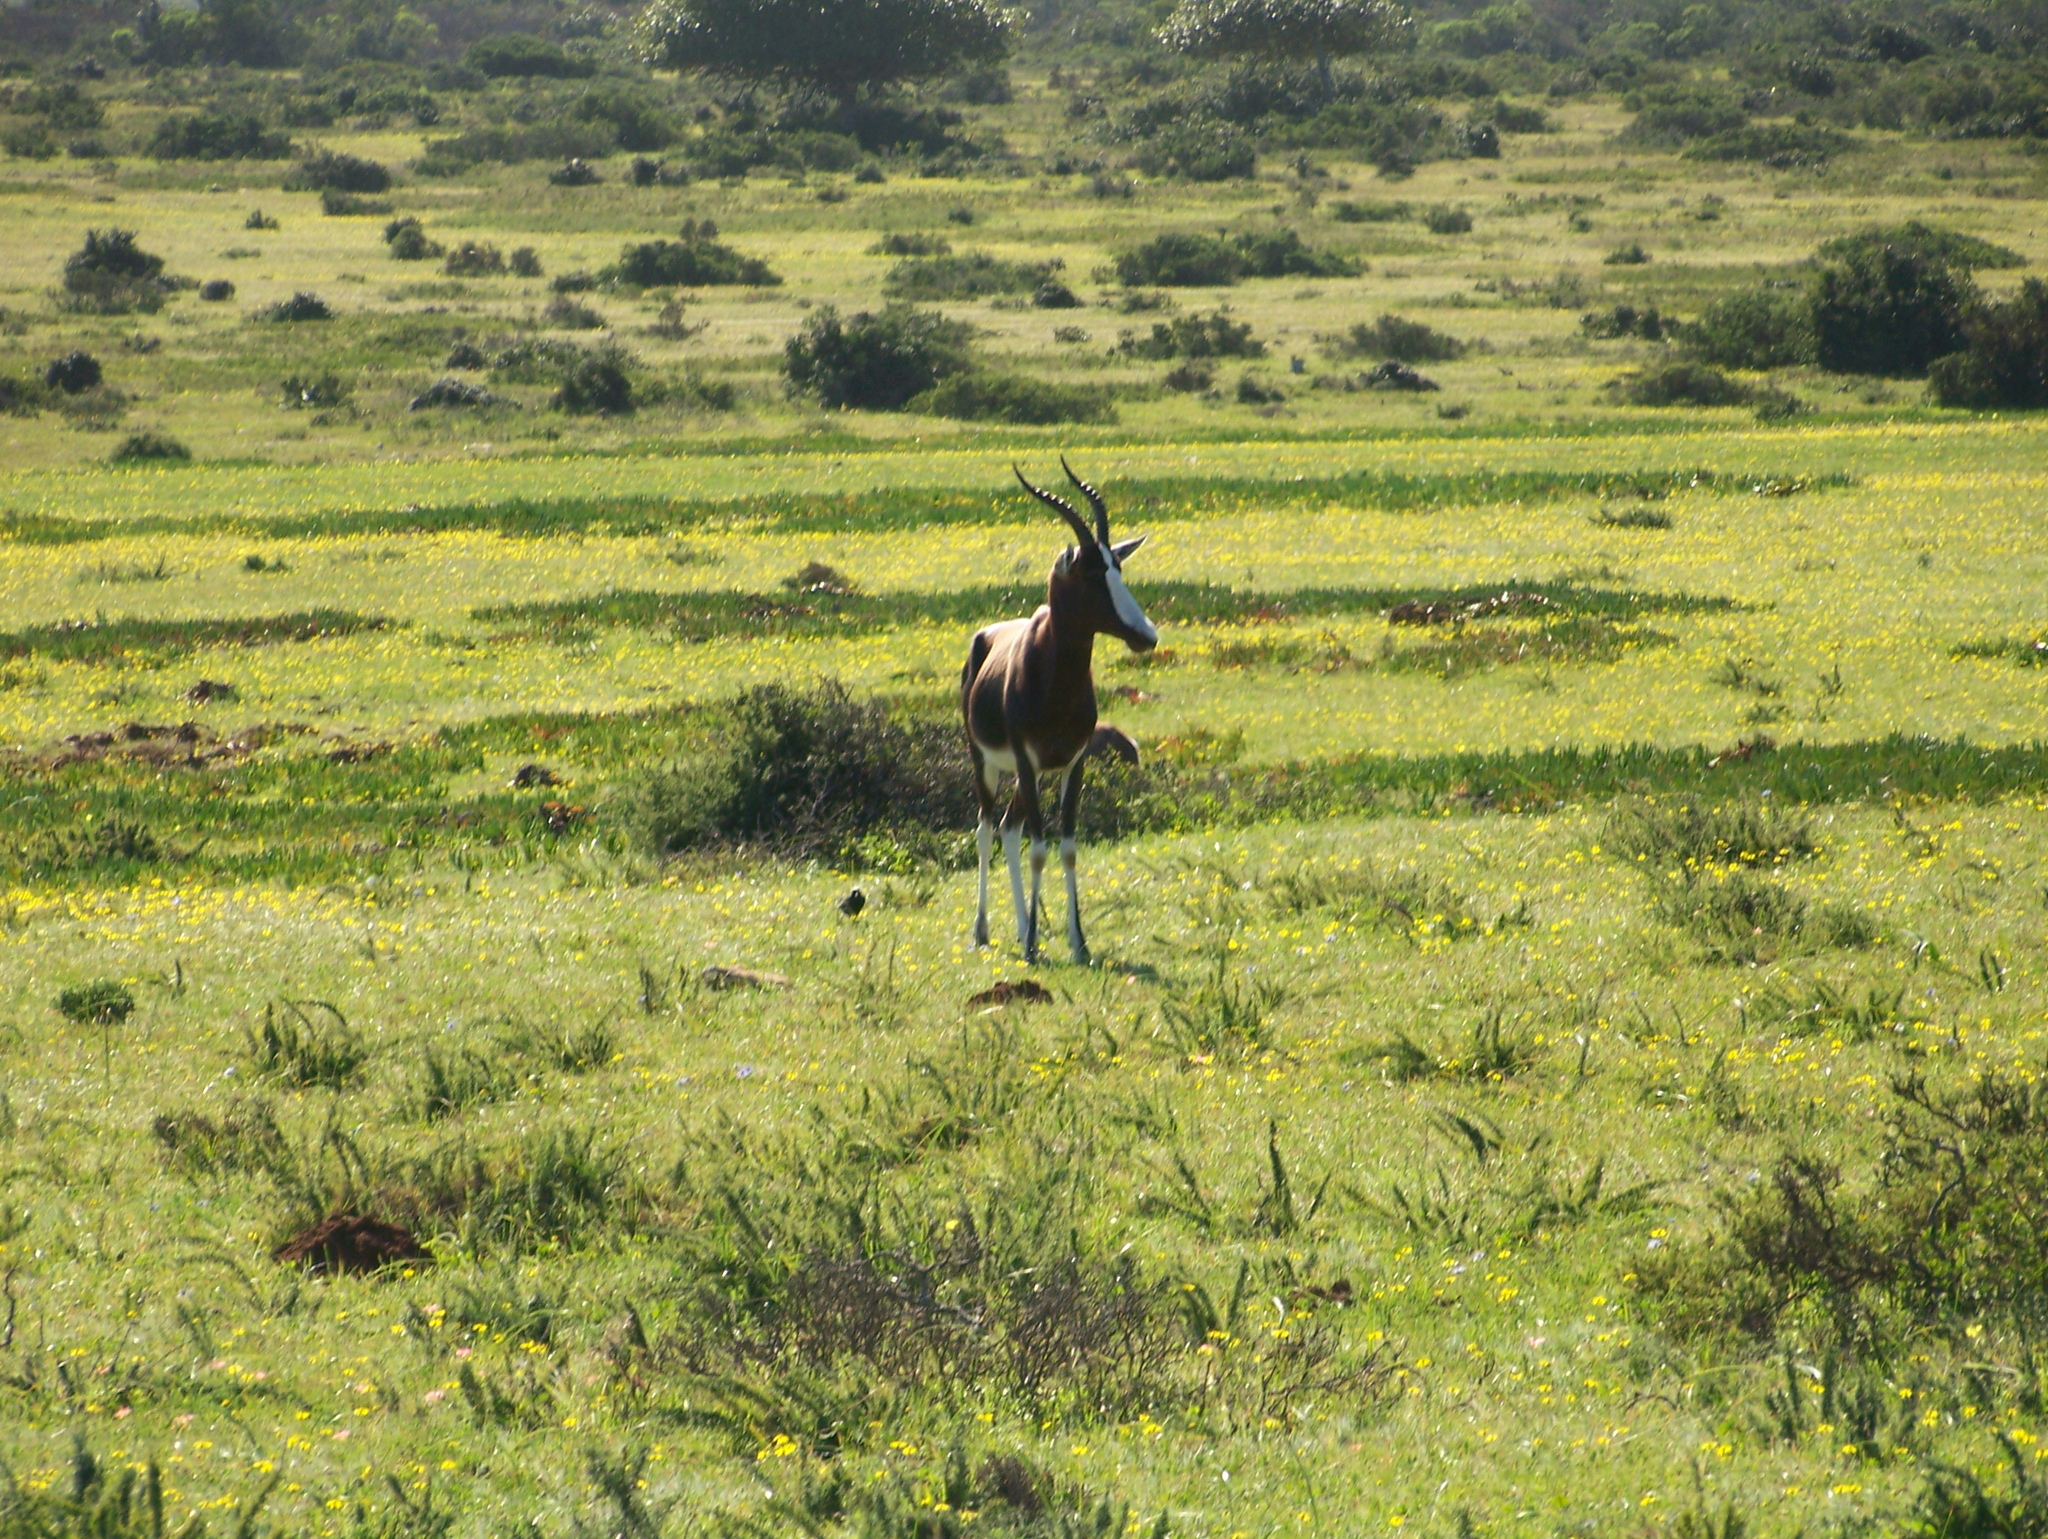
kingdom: Animalia
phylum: Chordata
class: Mammalia
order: Artiodactyla
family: Bovidae
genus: Damaliscus
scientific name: Damaliscus pygargus
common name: Bontebok
